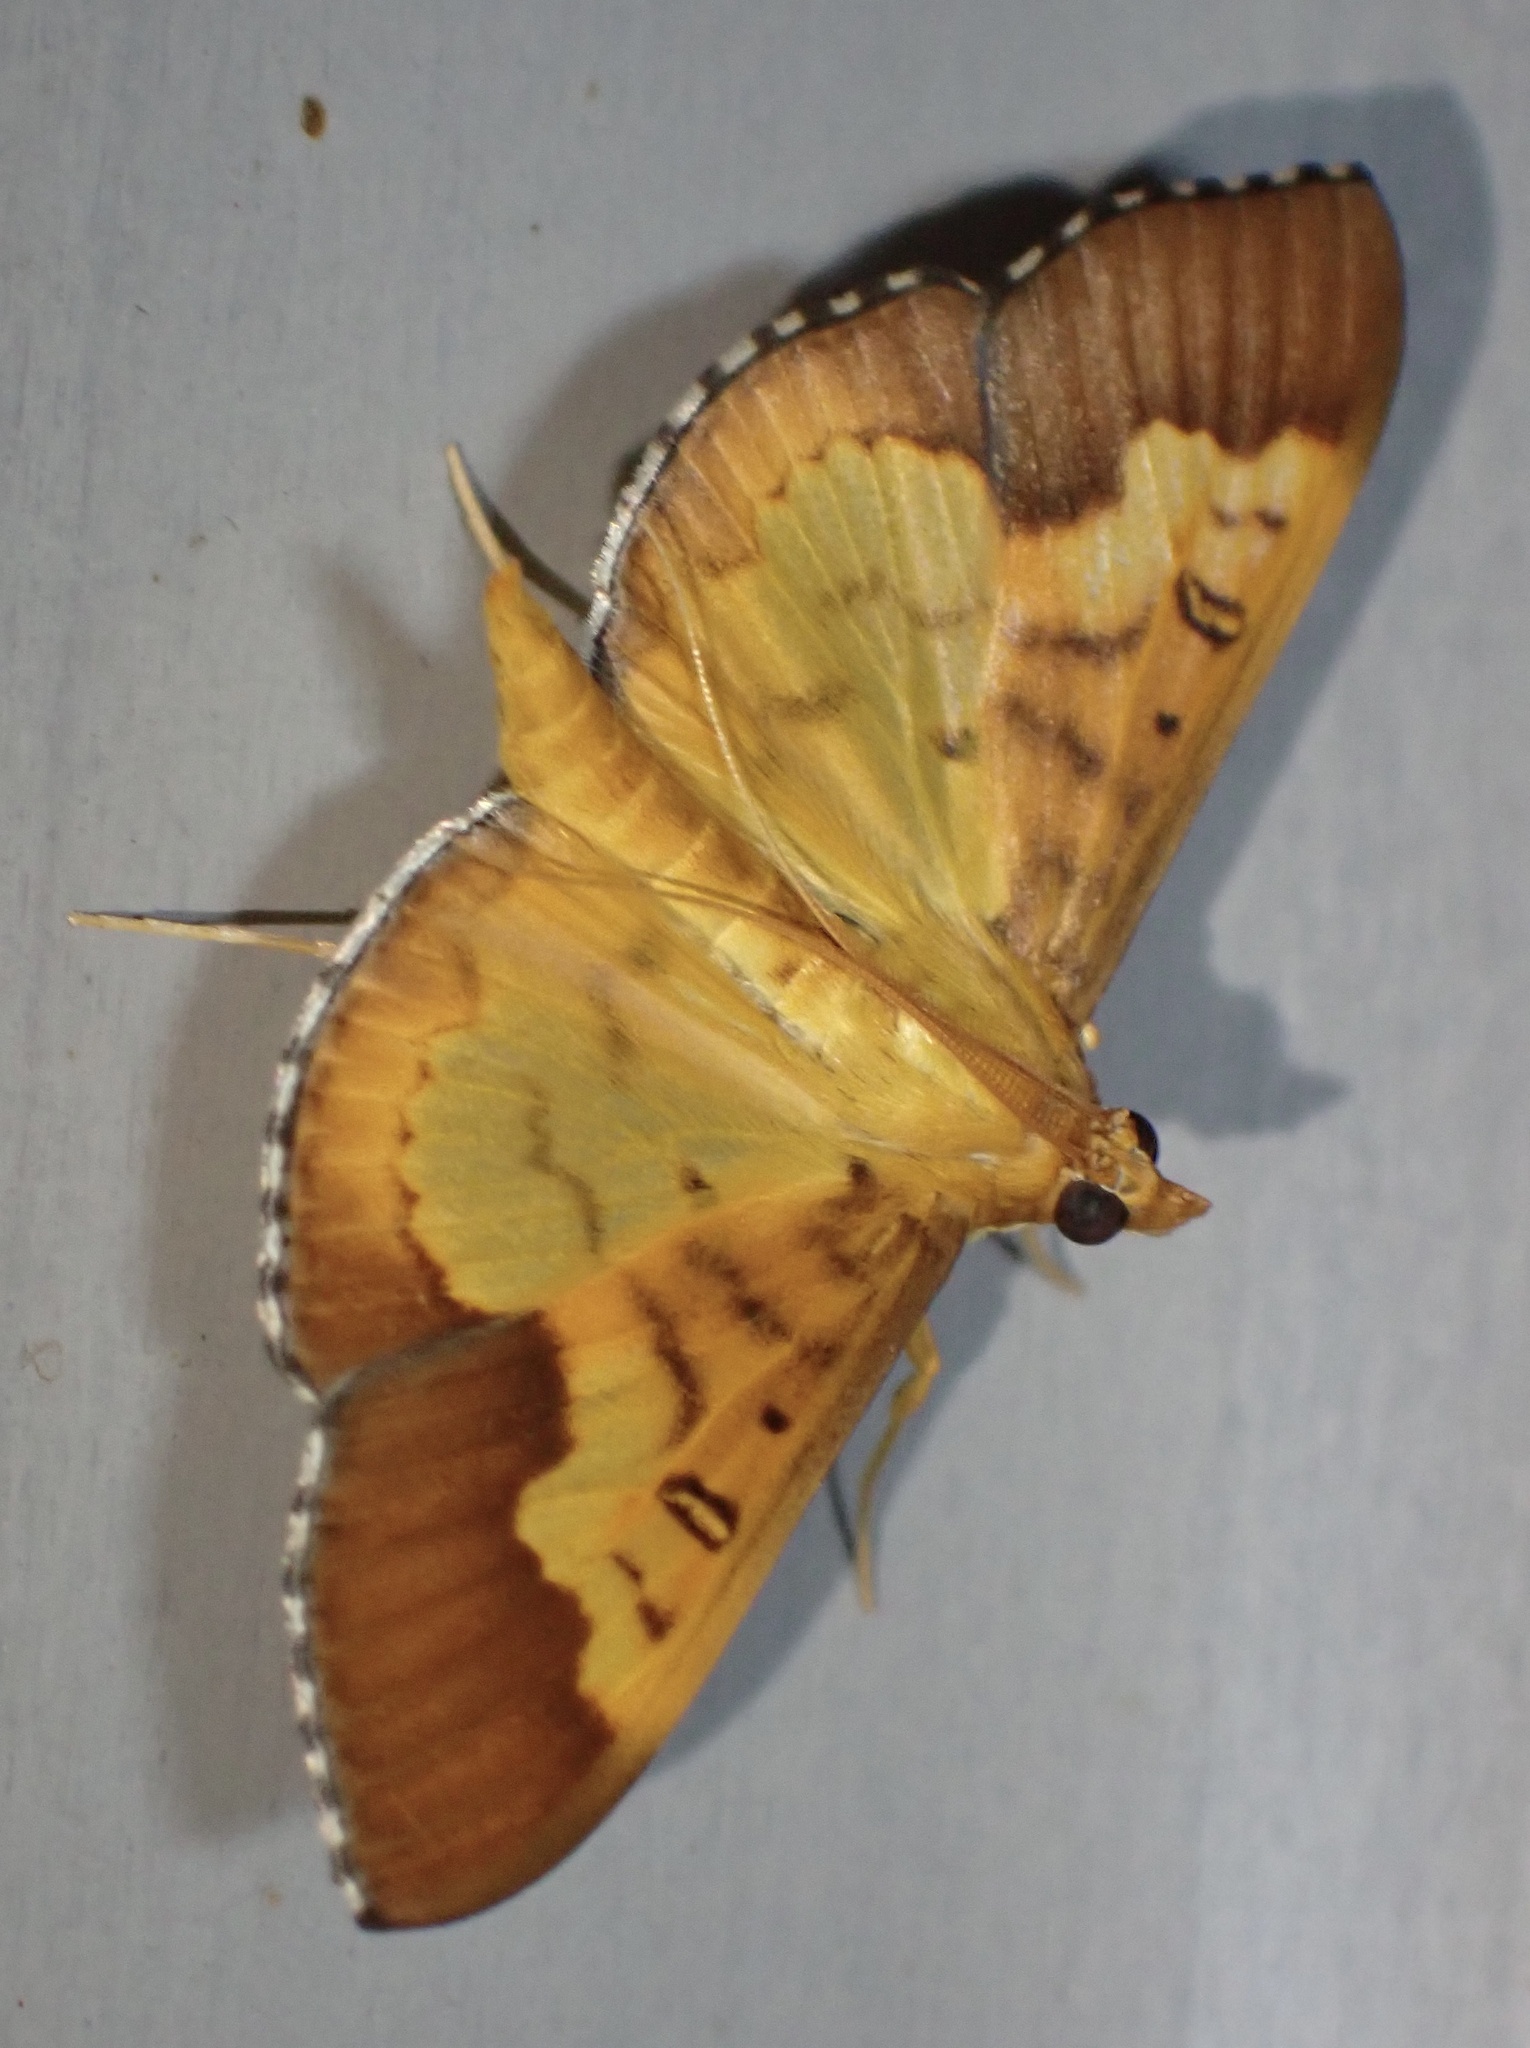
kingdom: Animalia
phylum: Arthropoda
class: Insecta
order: Lepidoptera
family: Crambidae
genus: Meroctena
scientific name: Meroctena staintonii
